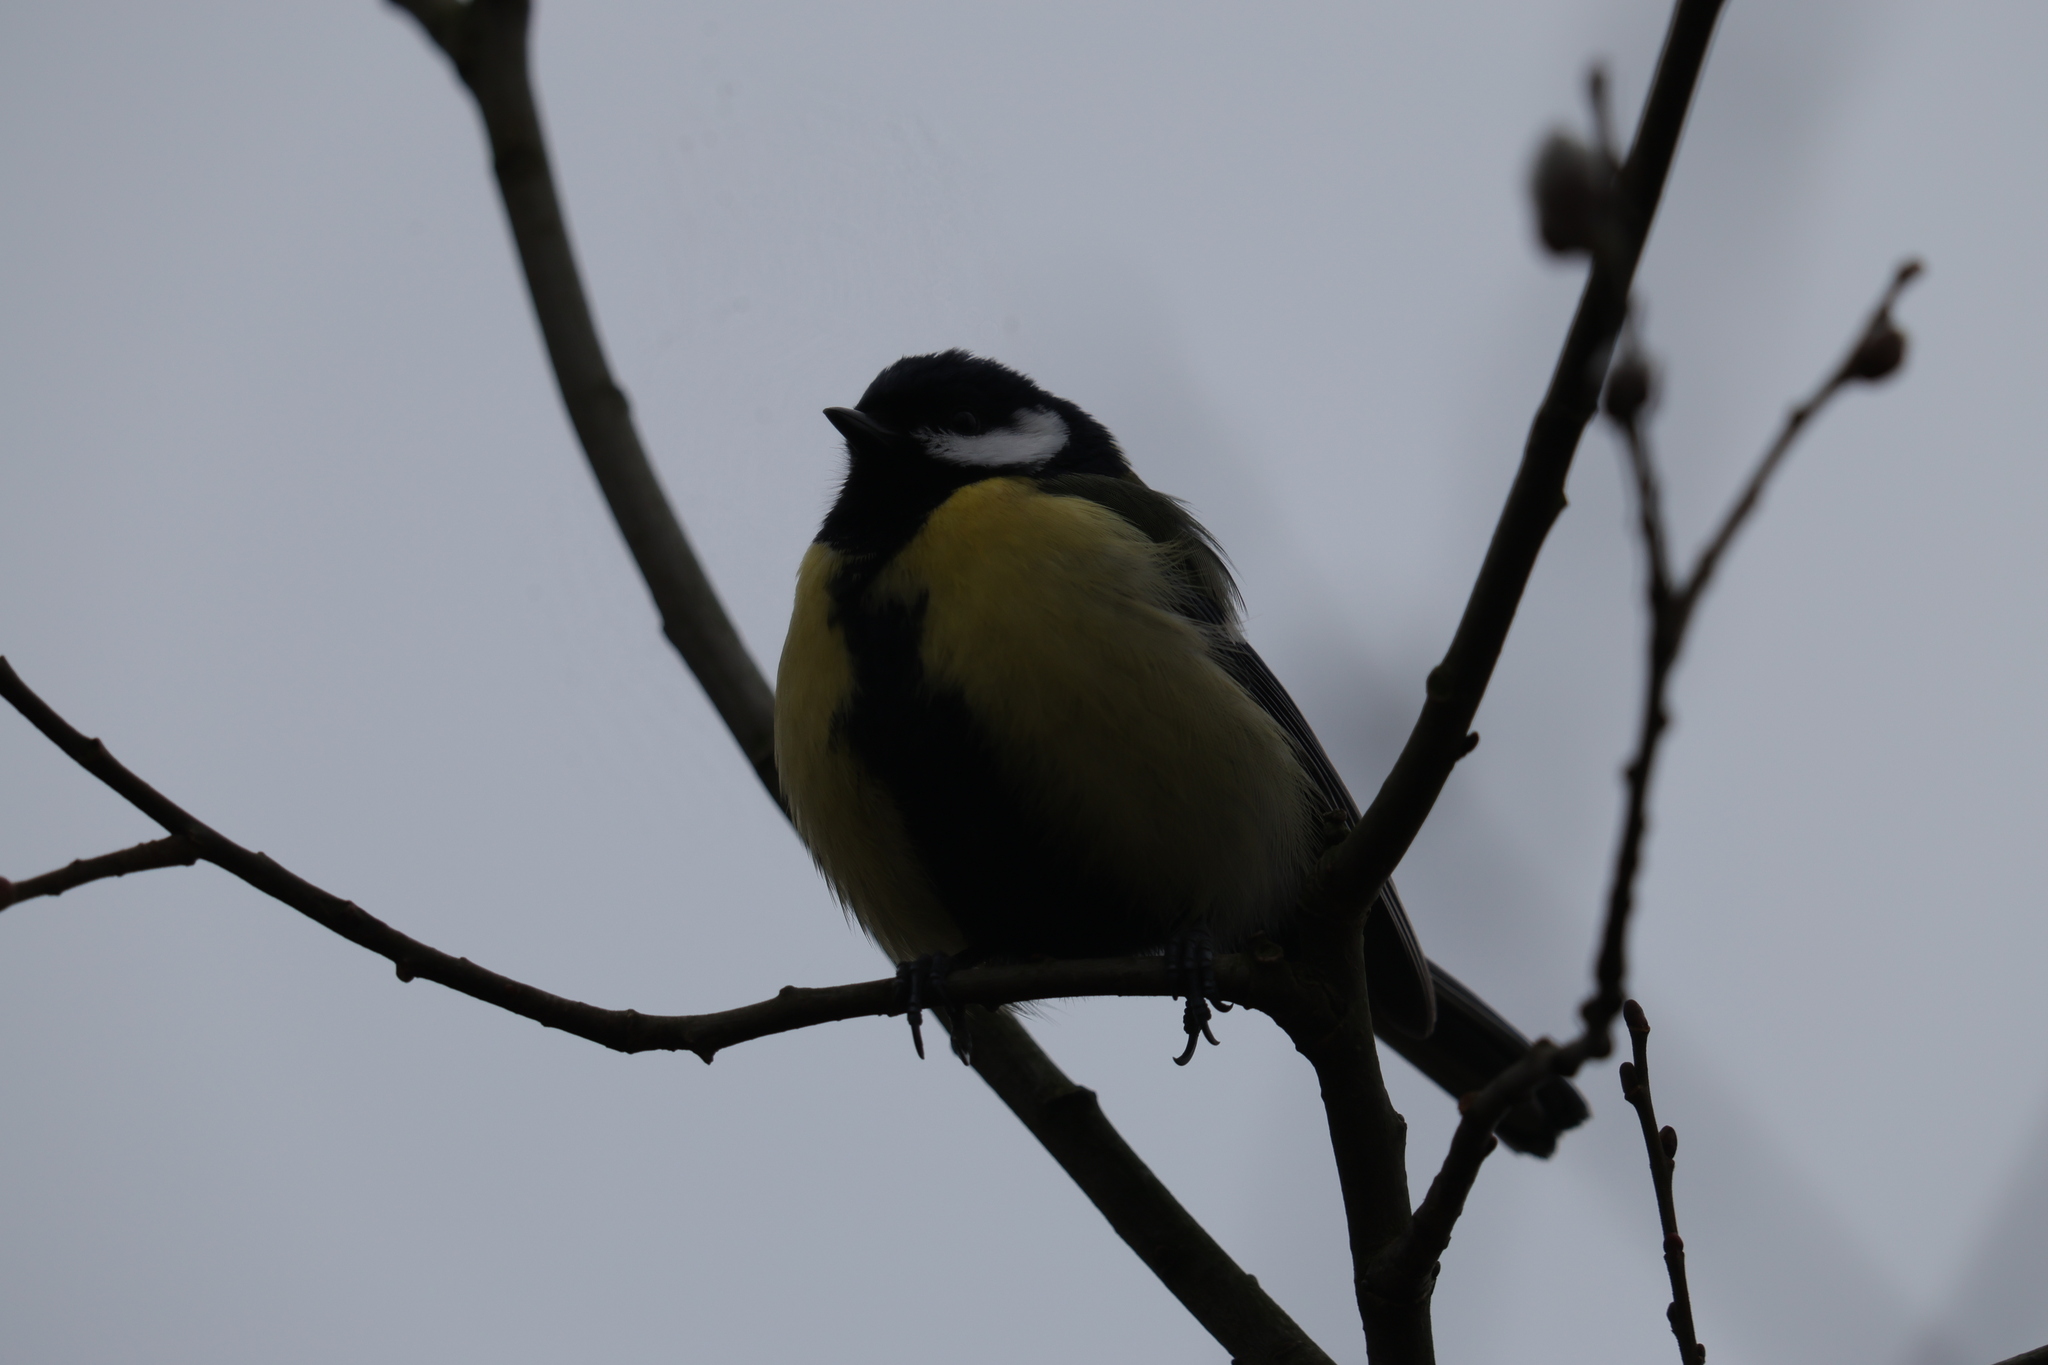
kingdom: Animalia
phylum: Chordata
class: Aves
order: Passeriformes
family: Paridae
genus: Parus
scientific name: Parus major
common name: Great tit
